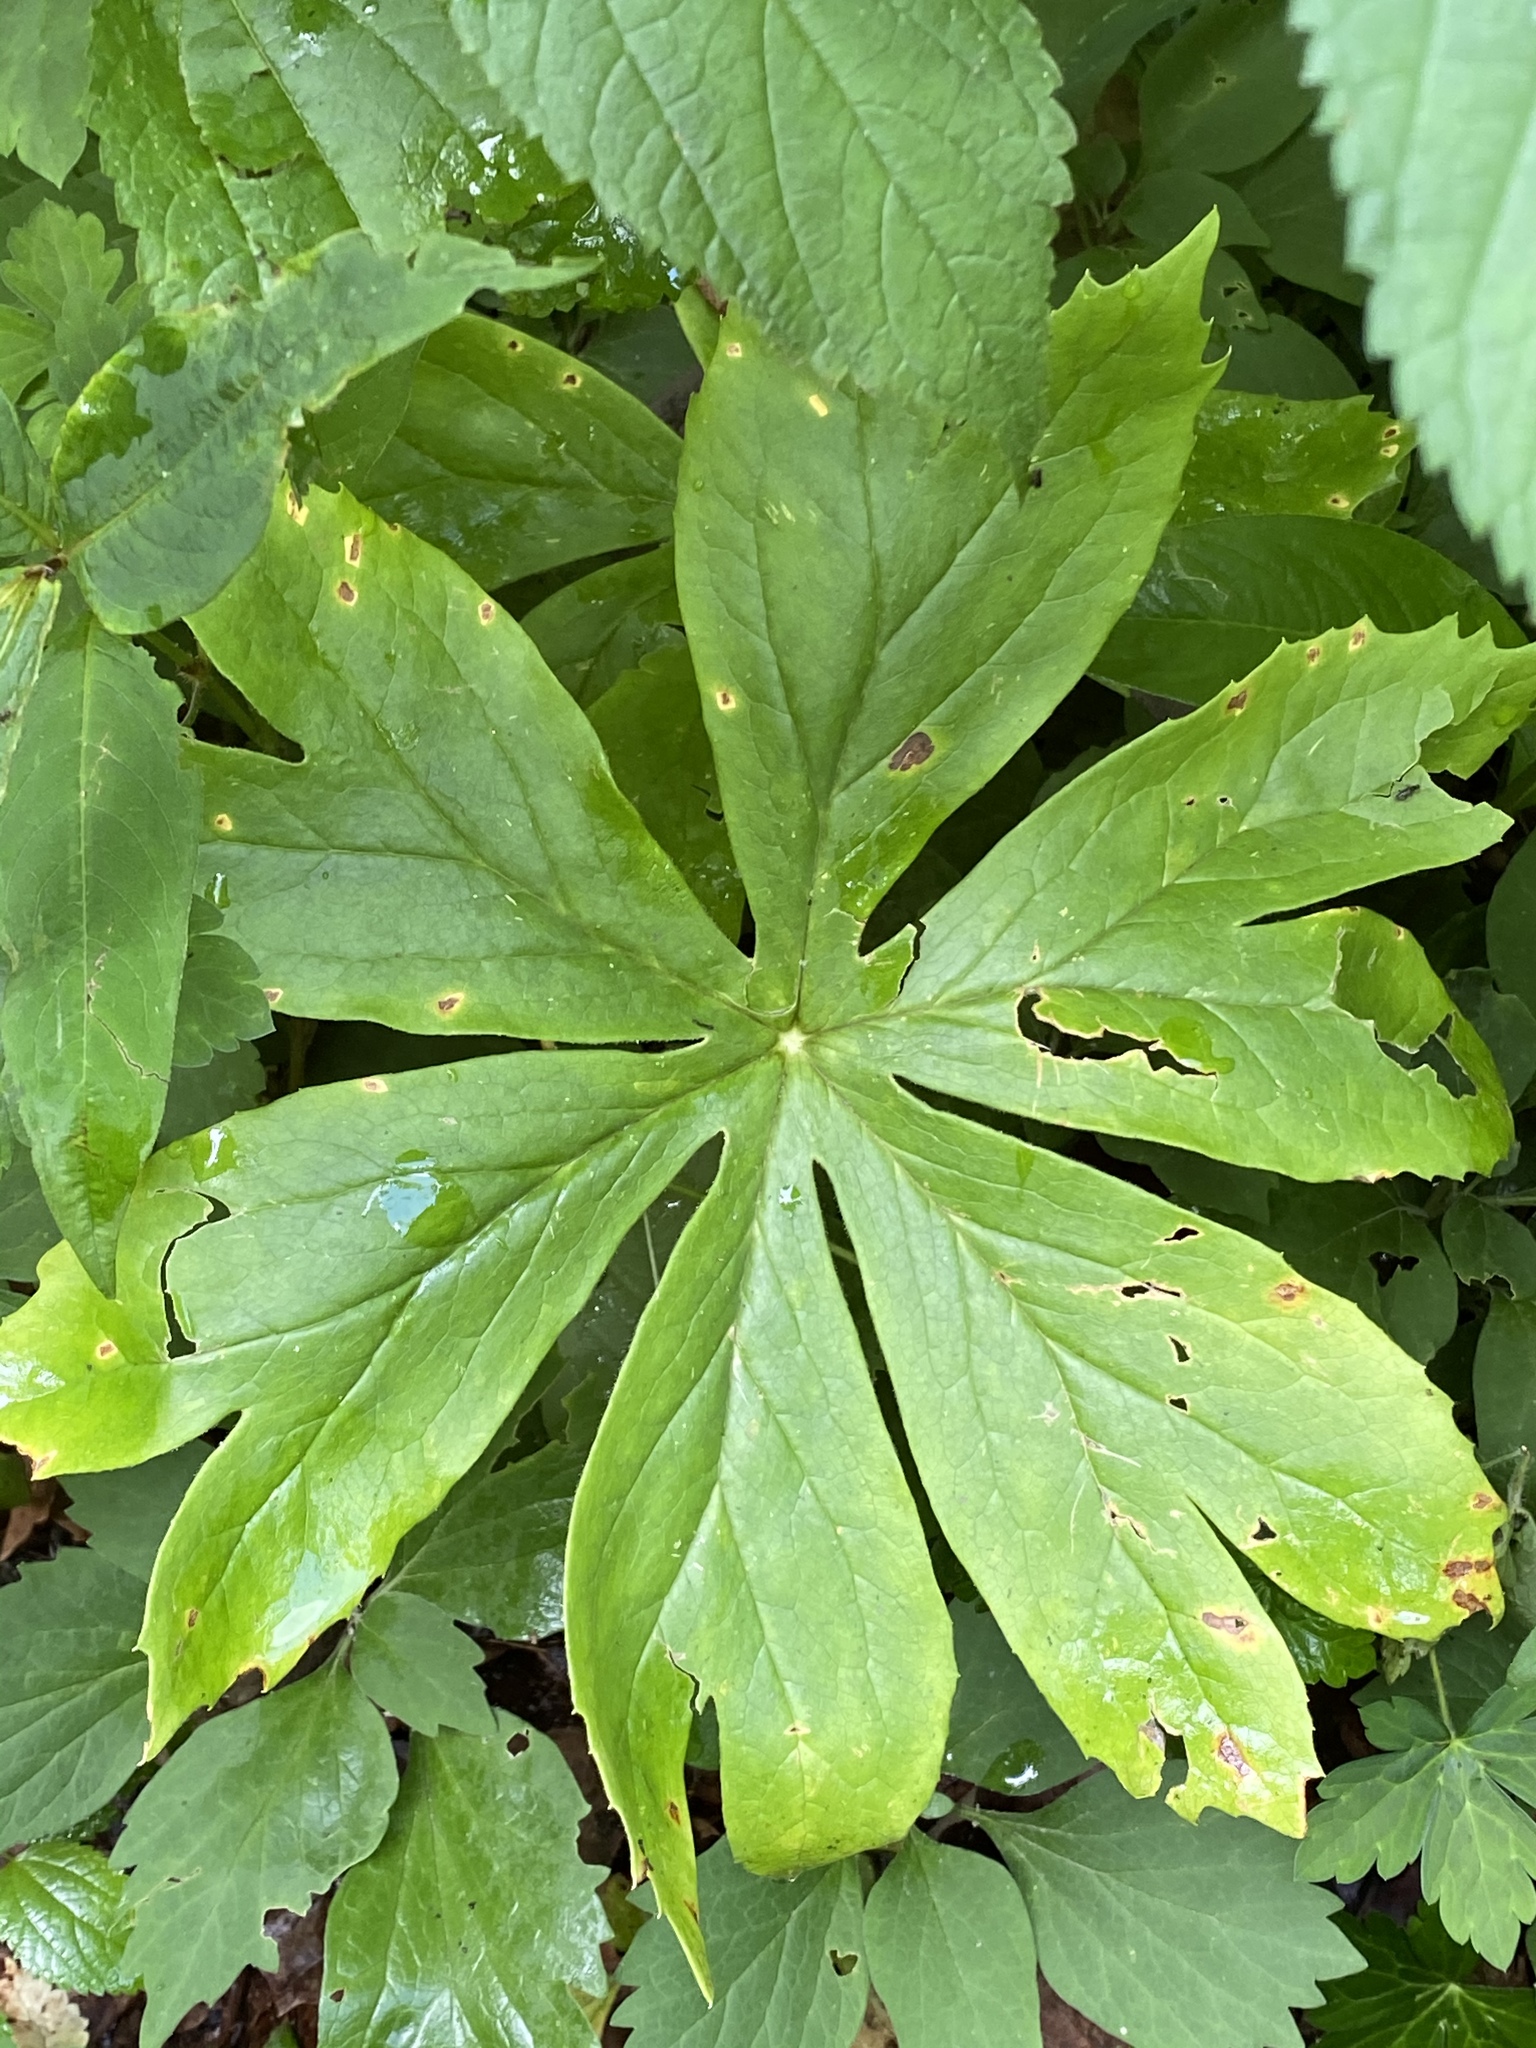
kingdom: Plantae
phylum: Tracheophyta
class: Magnoliopsida
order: Ranunculales
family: Berberidaceae
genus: Podophyllum
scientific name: Podophyllum peltatum
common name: Wild mandrake
